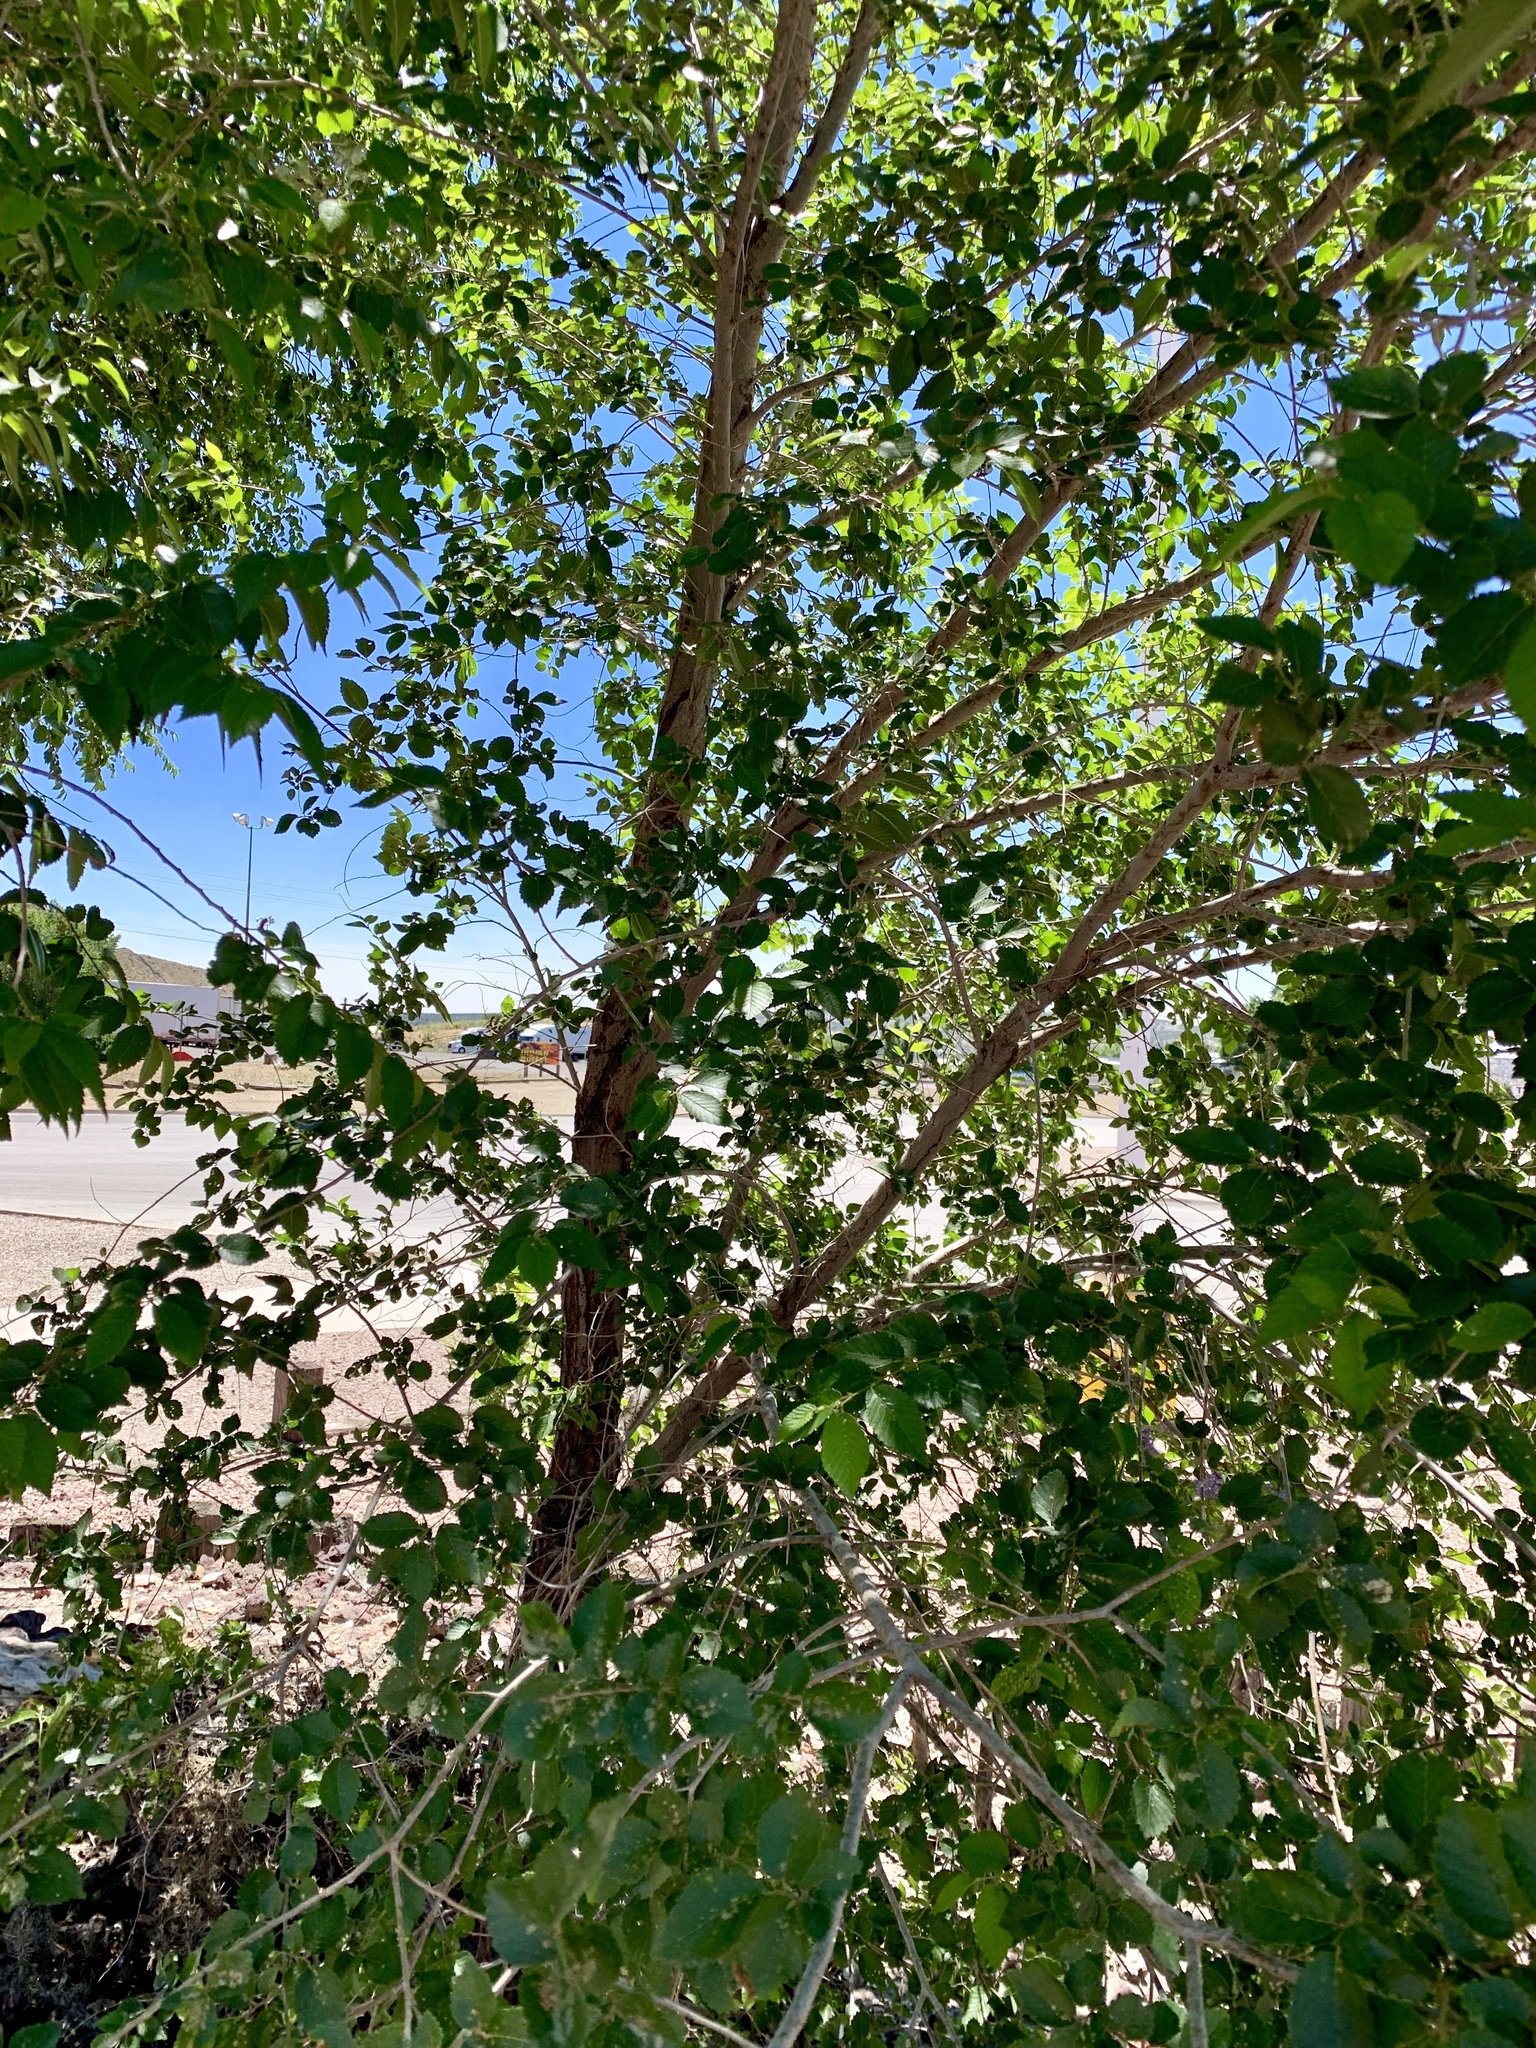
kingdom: Plantae
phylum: Tracheophyta
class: Magnoliopsida
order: Rosales
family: Ulmaceae
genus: Ulmus
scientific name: Ulmus pumila
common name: Siberian elm
